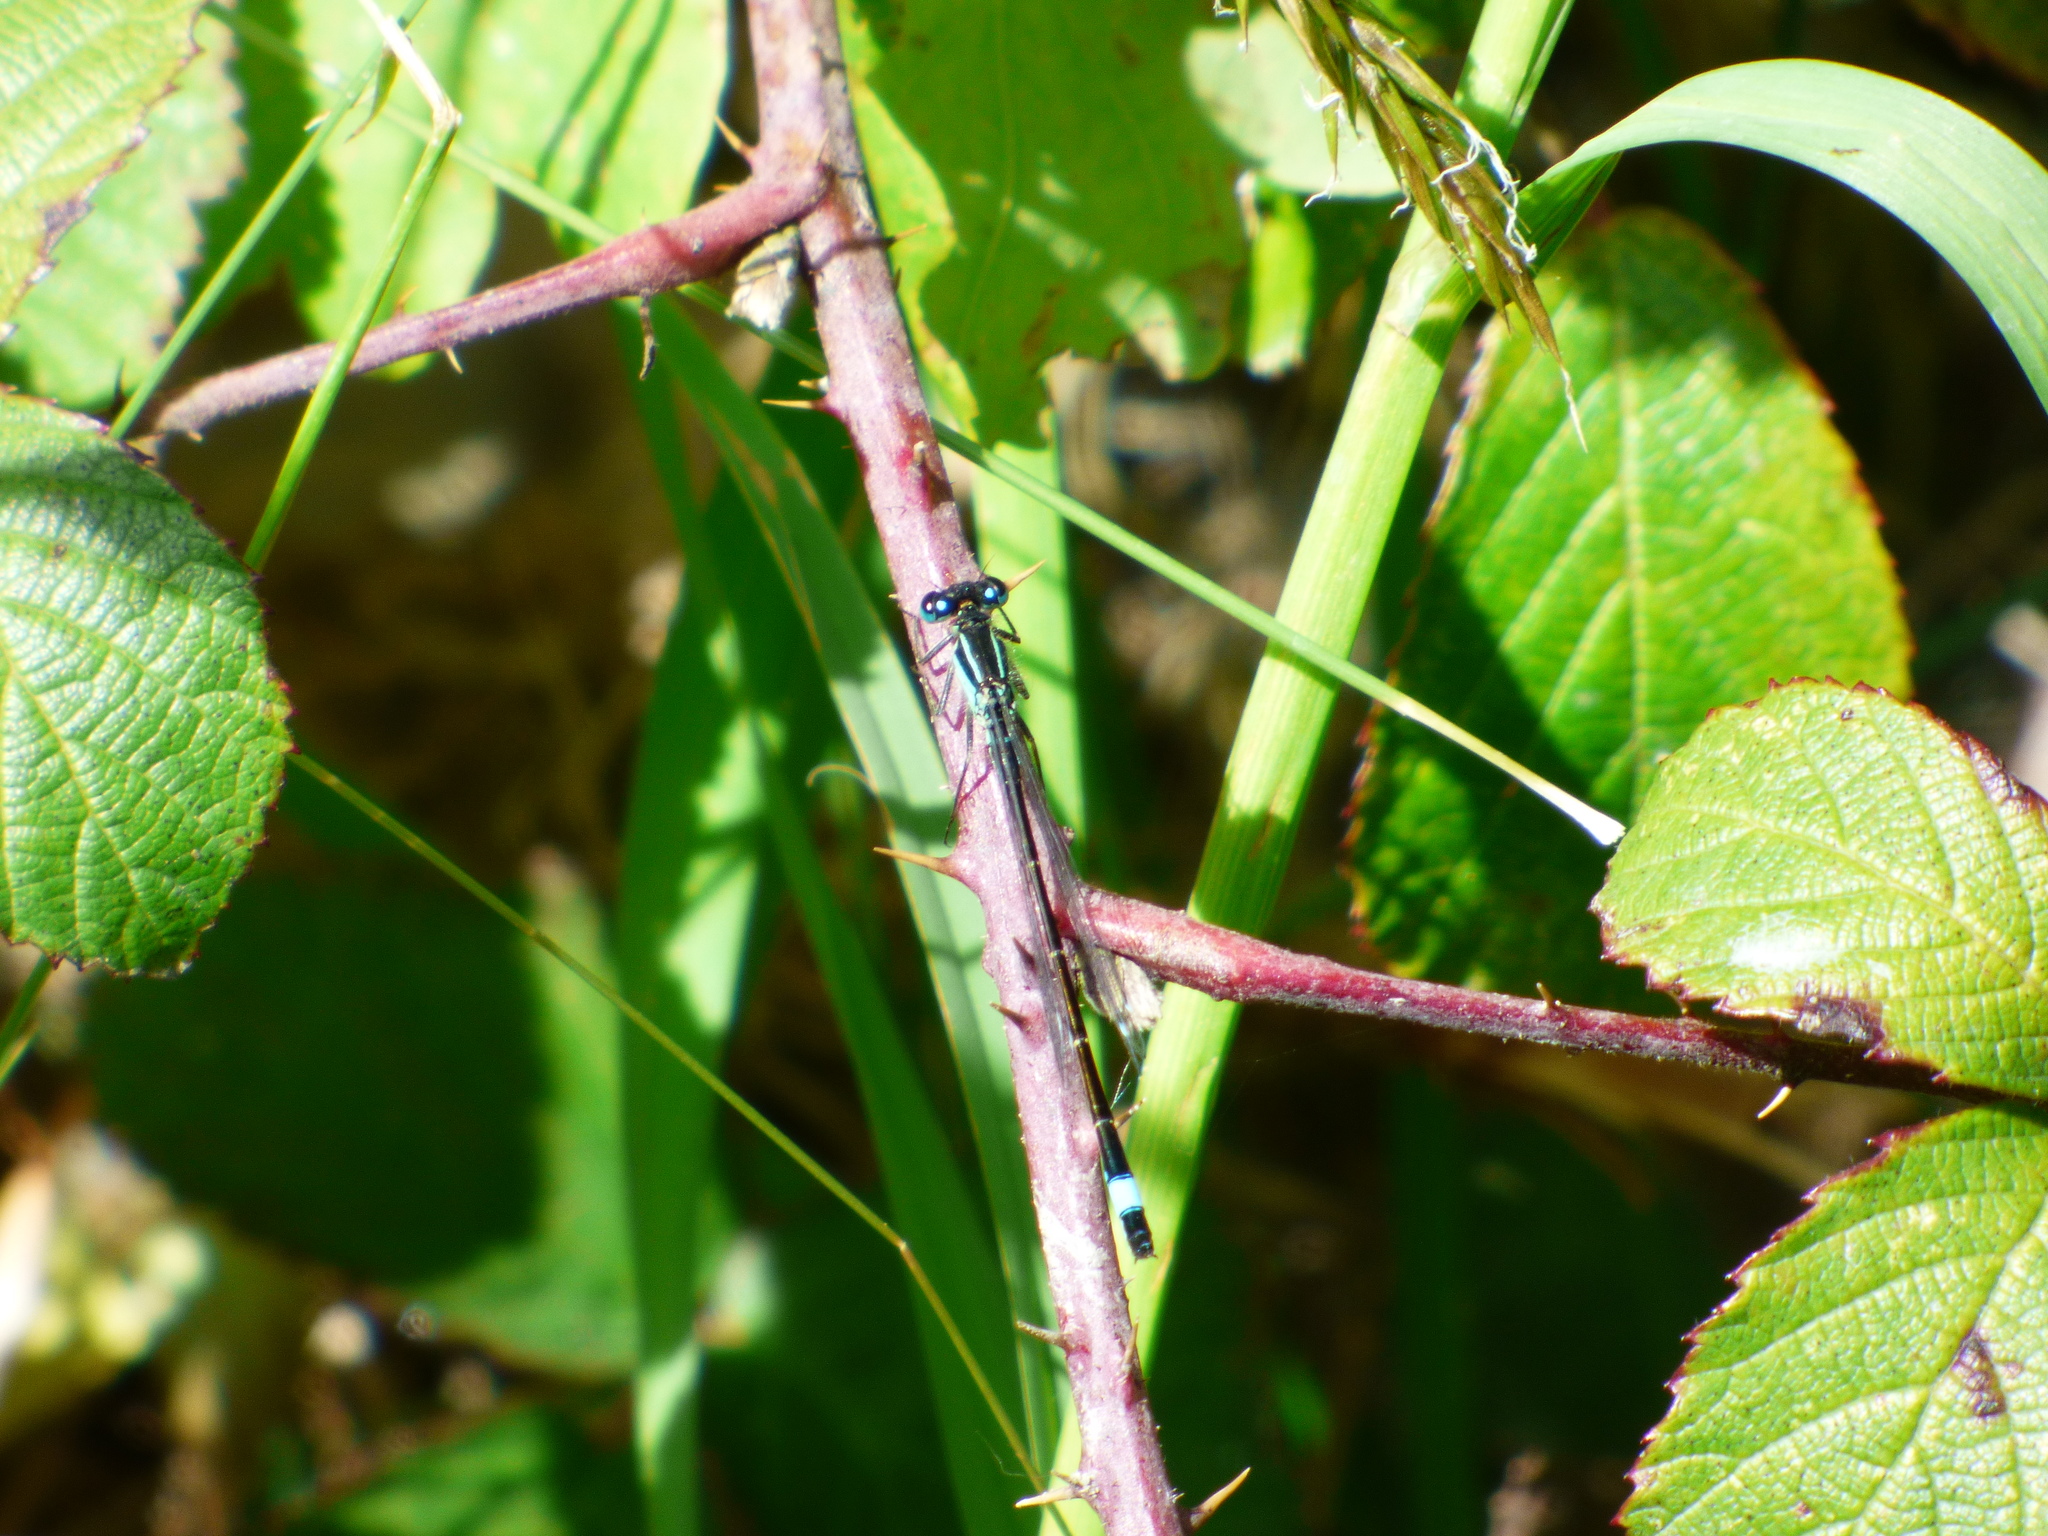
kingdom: Animalia
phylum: Arthropoda
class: Insecta
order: Odonata
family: Coenagrionidae
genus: Ischnura
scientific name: Ischnura elegans
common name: Blue-tailed damselfly
